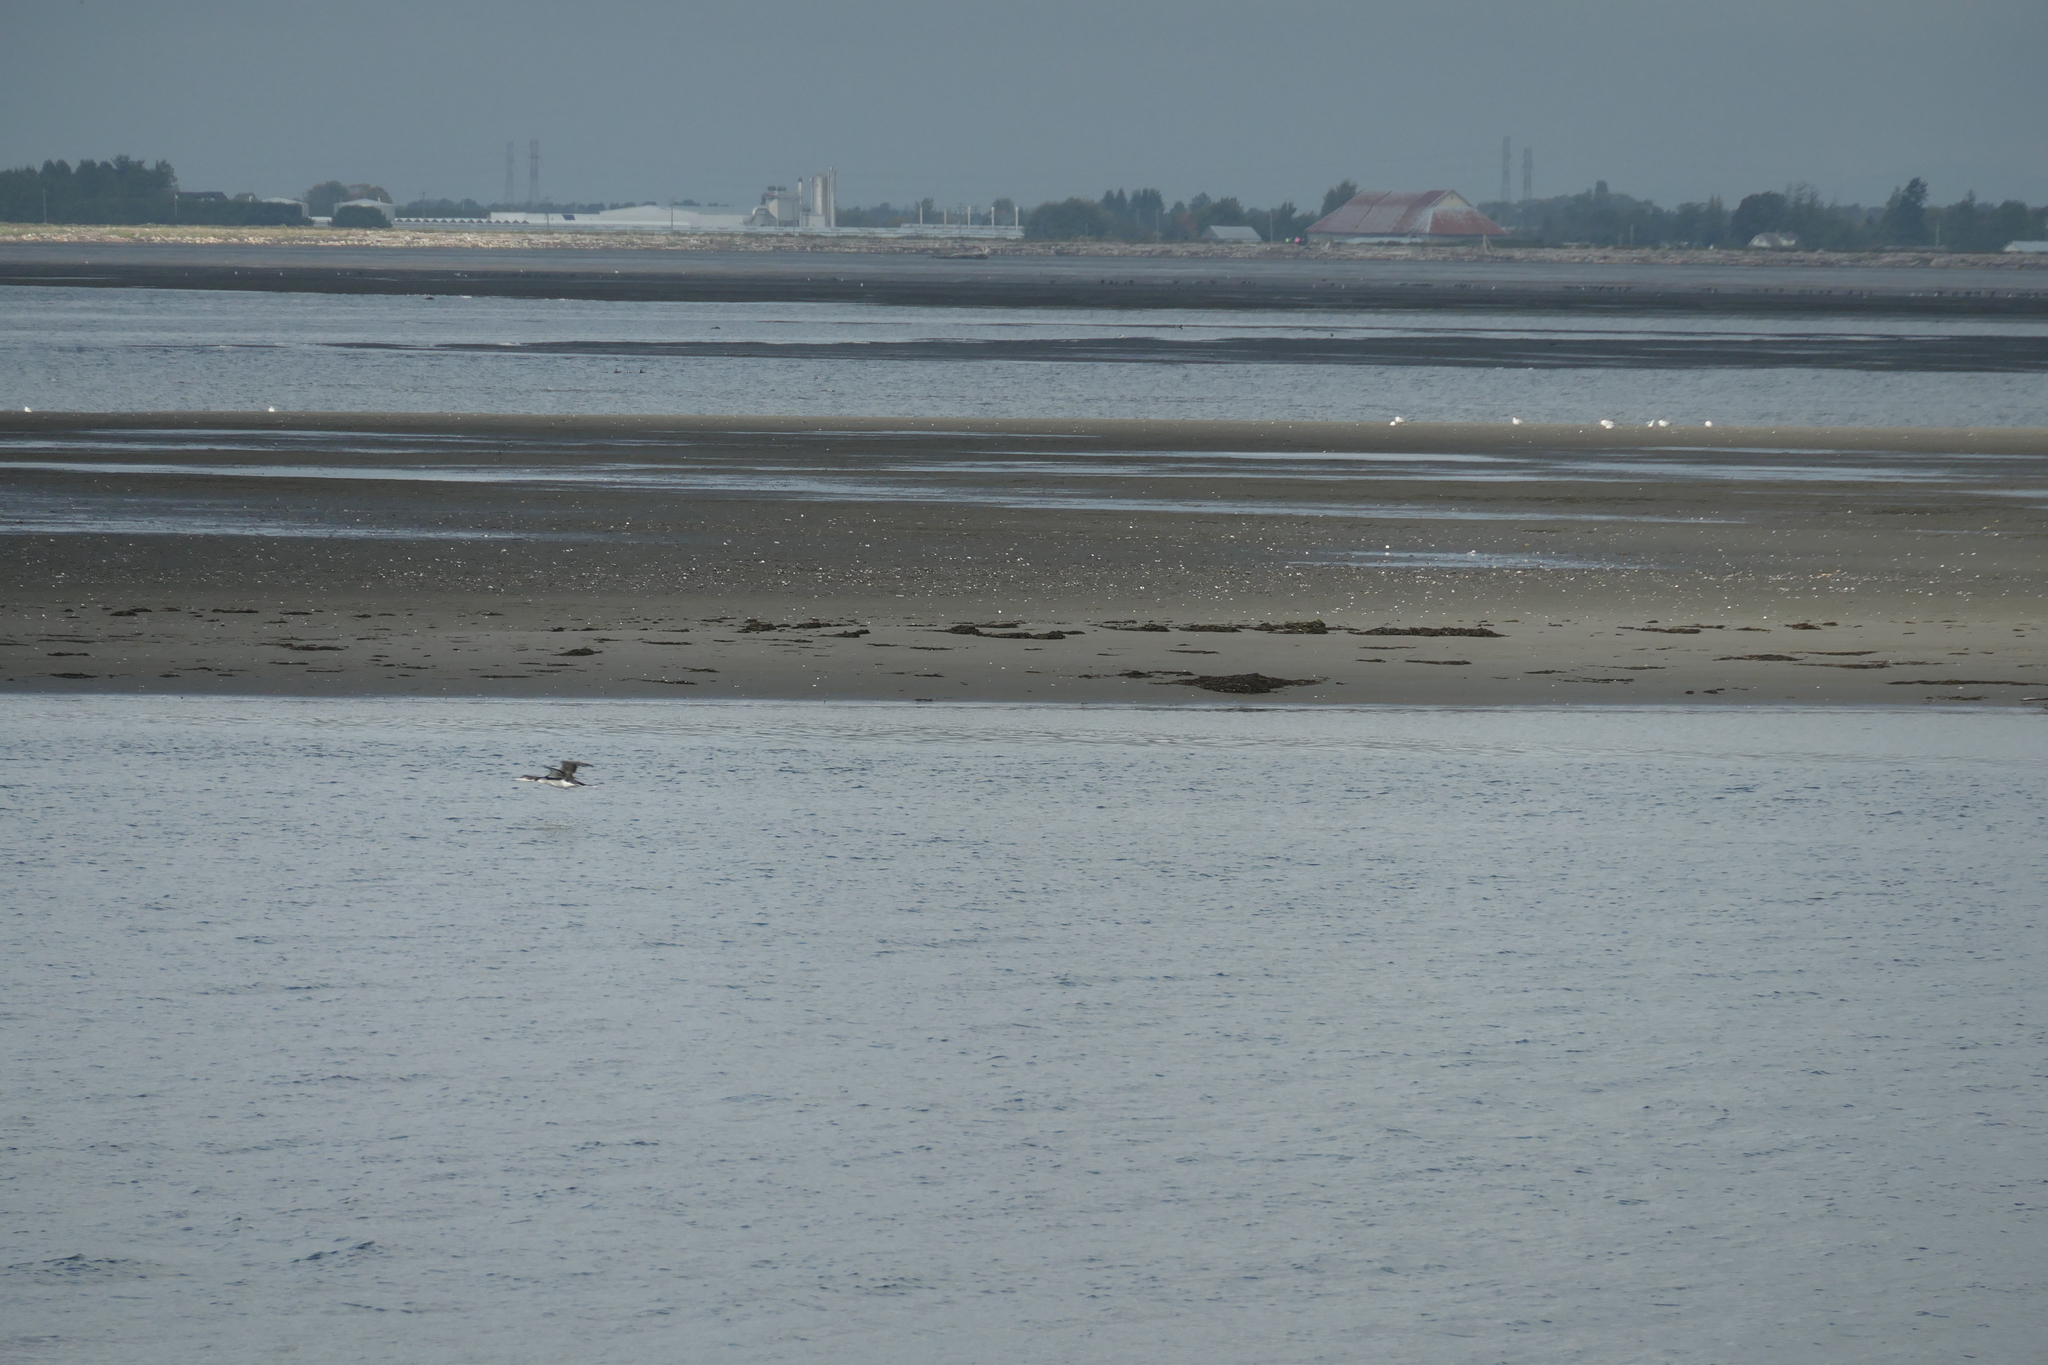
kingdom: Animalia
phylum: Chordata
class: Aves
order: Gaviiformes
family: Gaviidae
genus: Gavia
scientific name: Gavia immer
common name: Common loon
